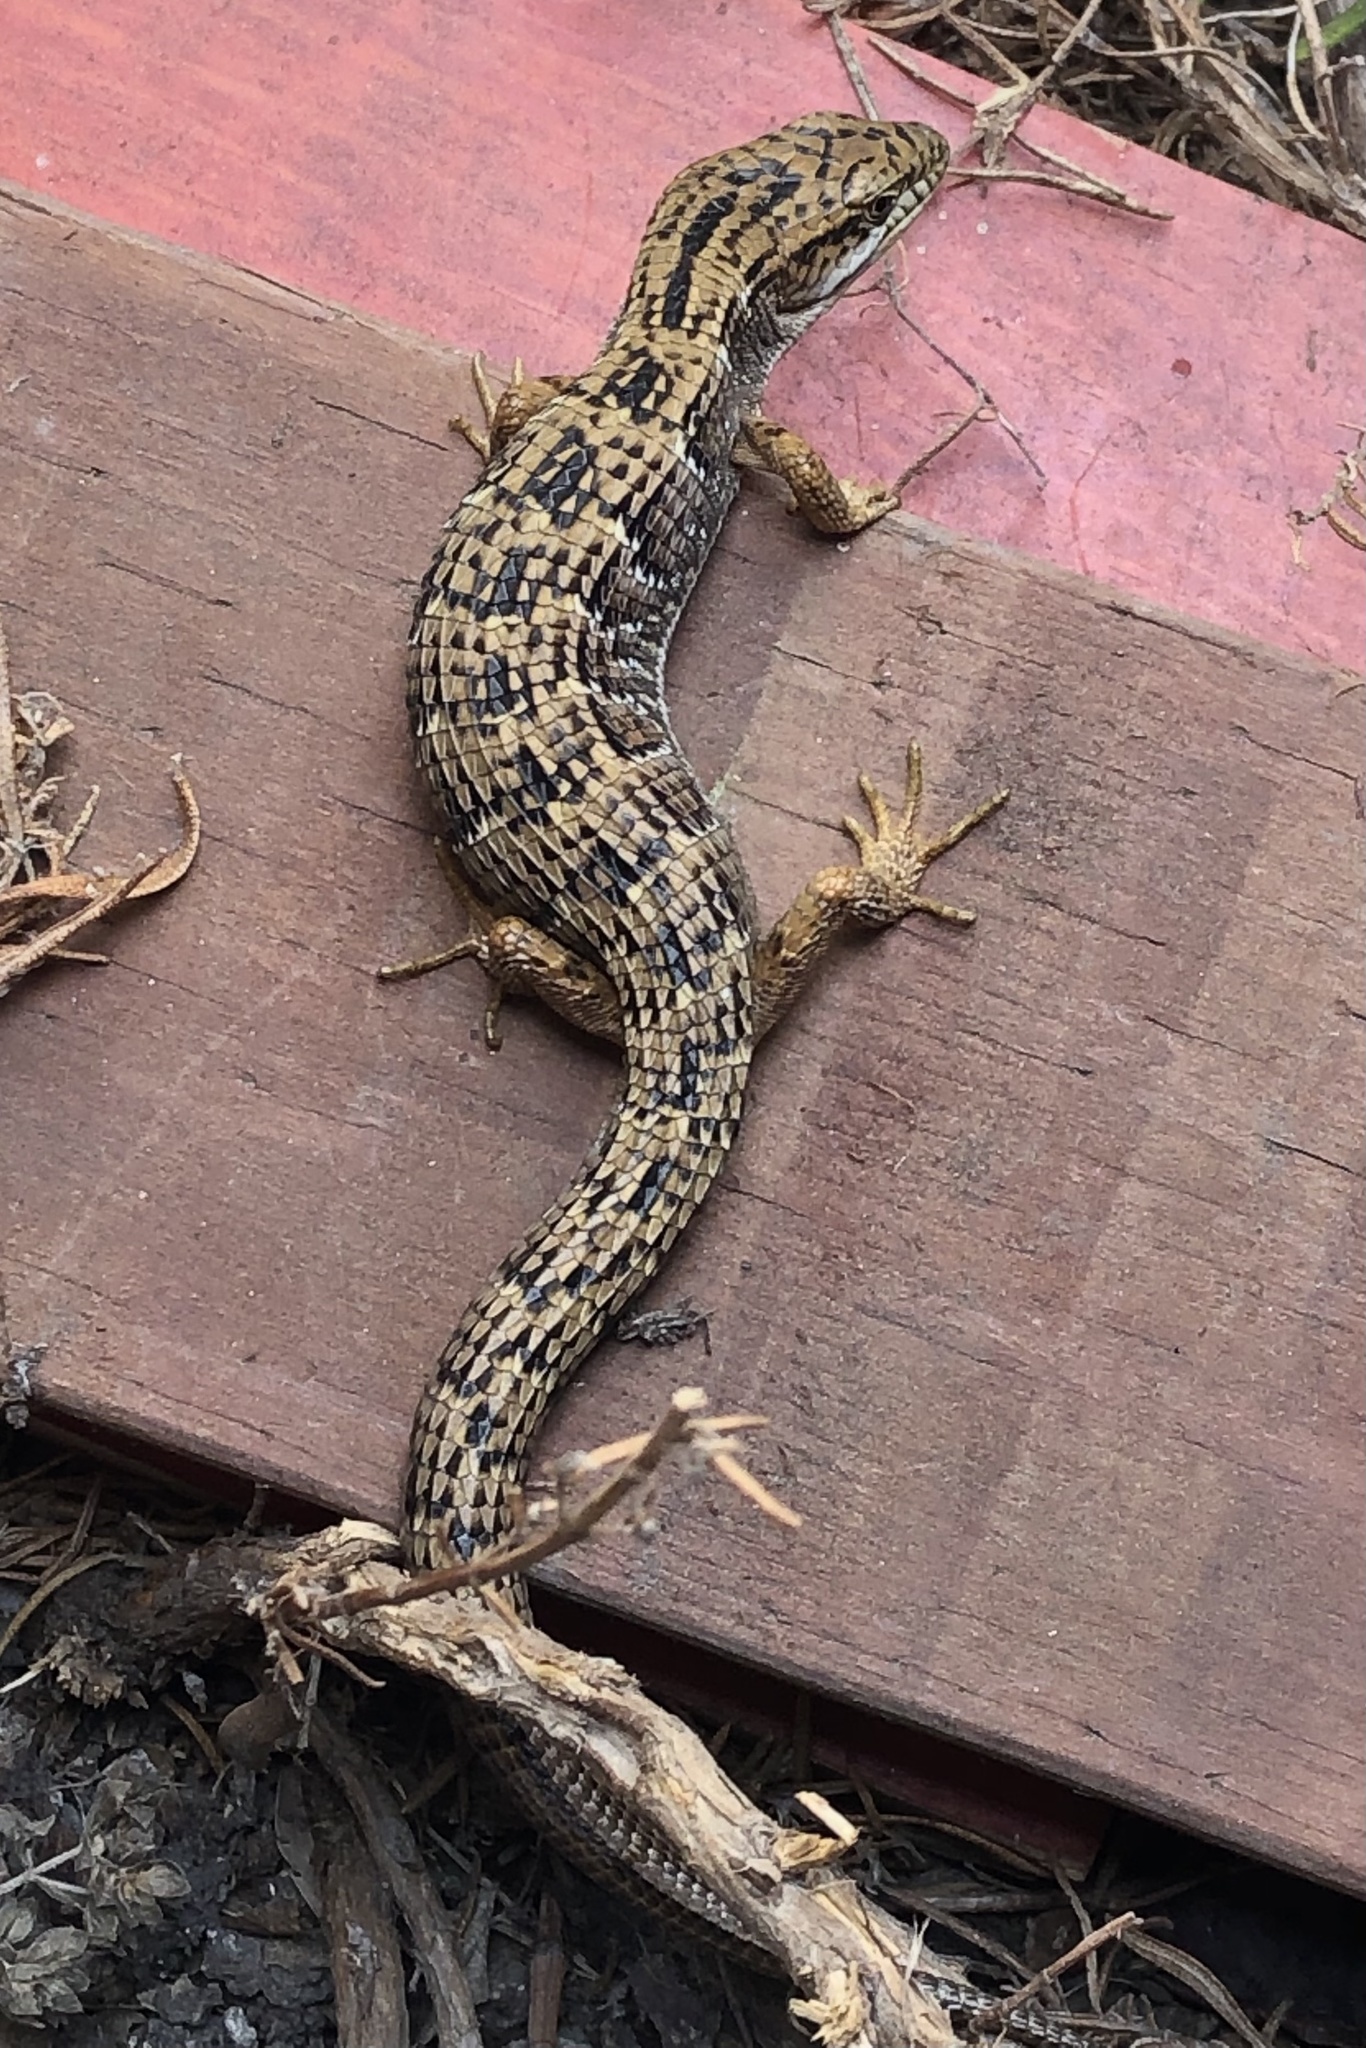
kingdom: Animalia
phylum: Chordata
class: Squamata
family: Anguidae
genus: Elgaria
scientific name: Elgaria multicarinata
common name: Southern alligator lizard
